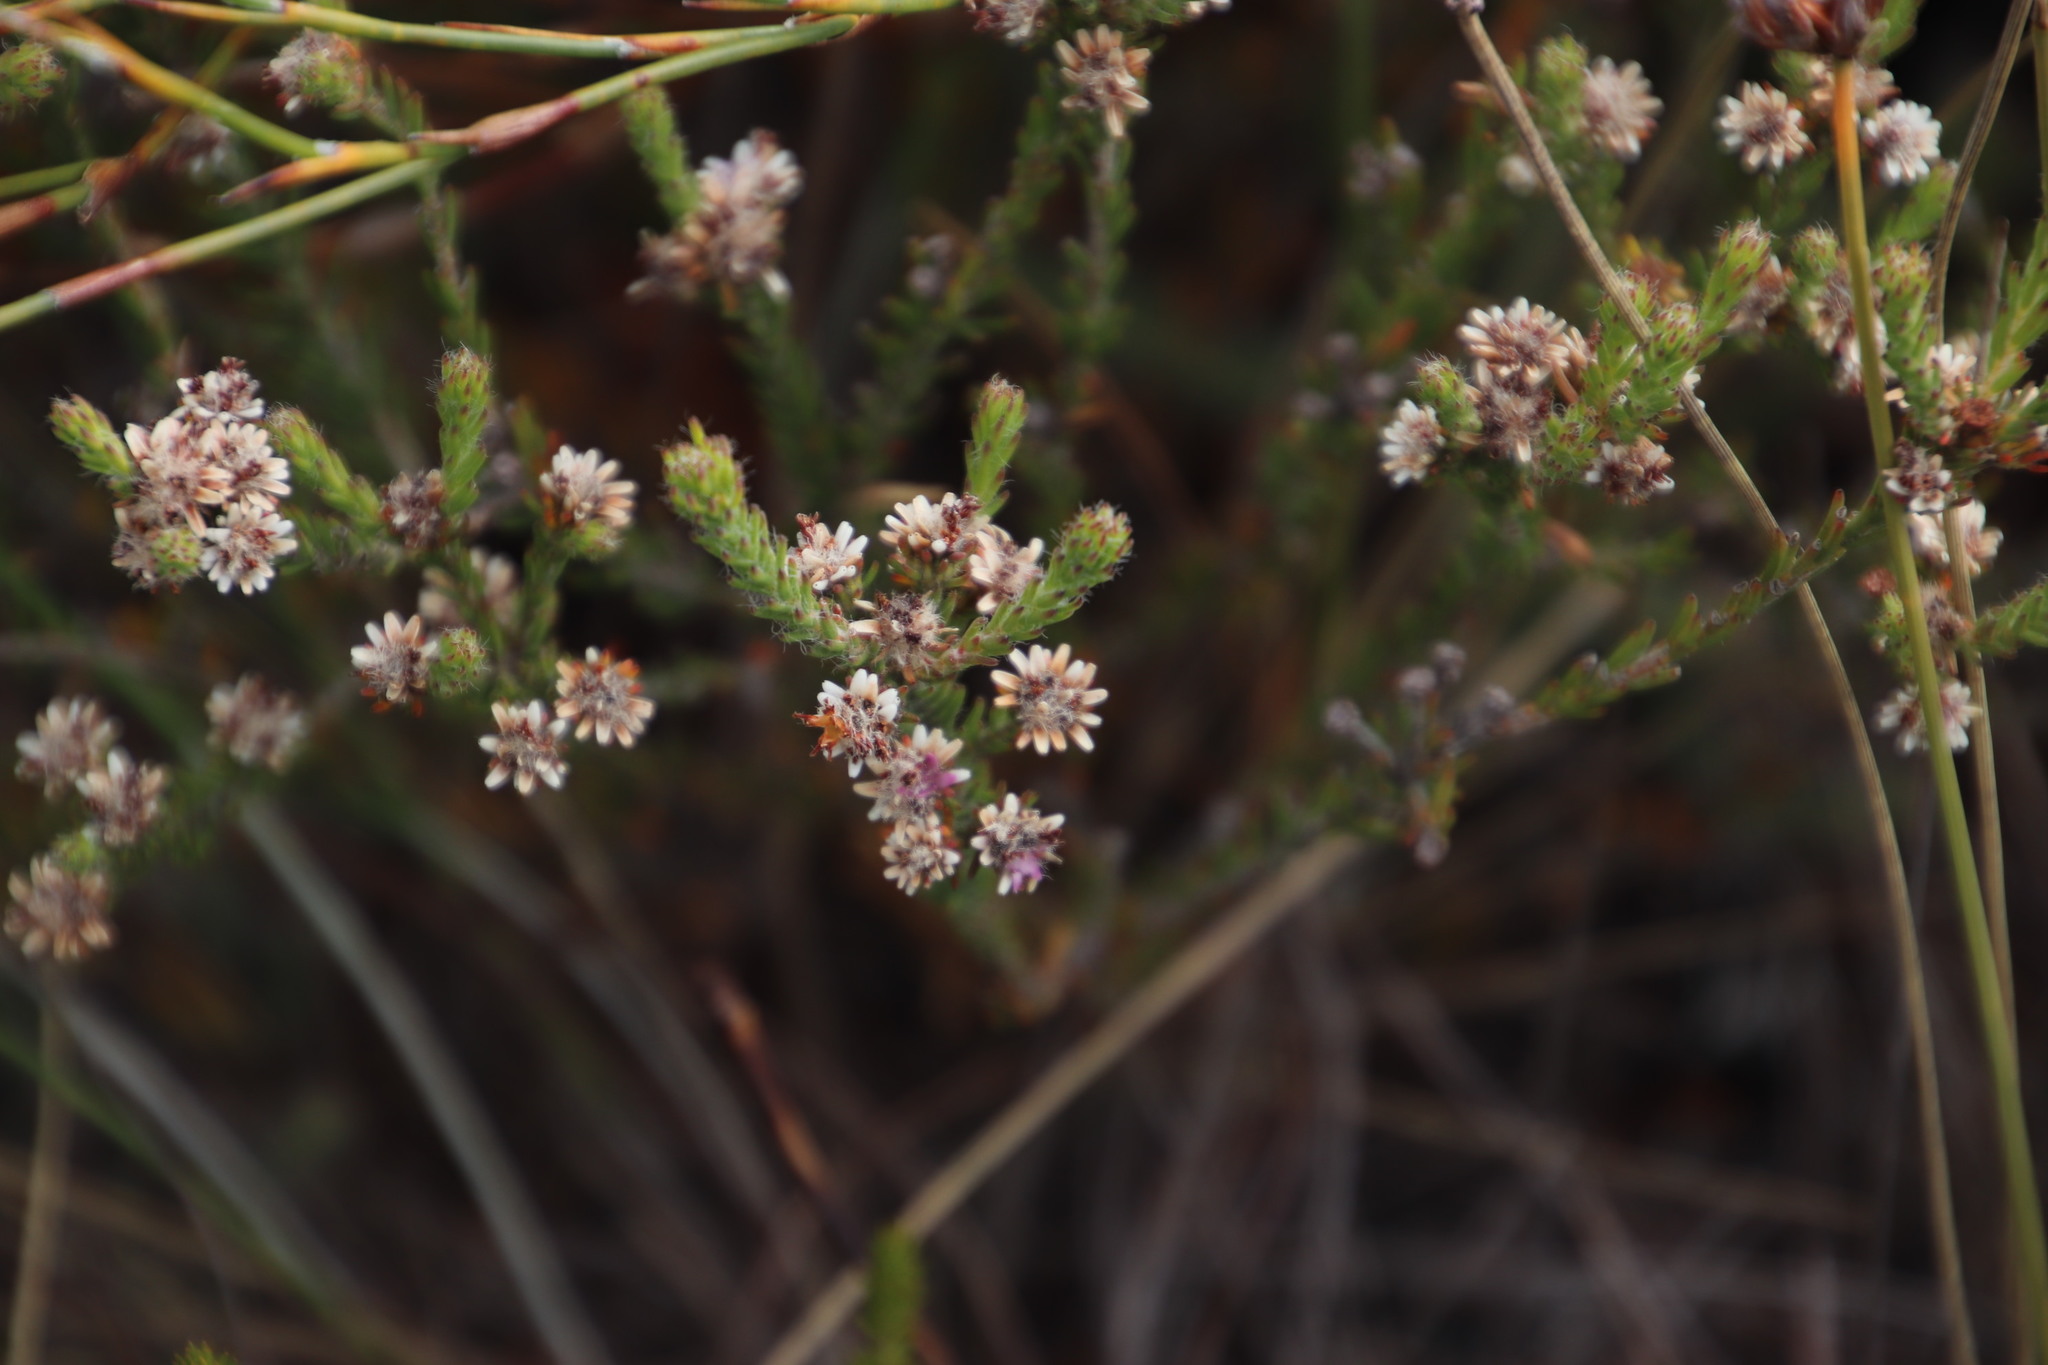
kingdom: Plantae
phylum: Tracheophyta
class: Magnoliopsida
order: Bruniales
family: Bruniaceae
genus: Staavia
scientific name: Staavia radiata
